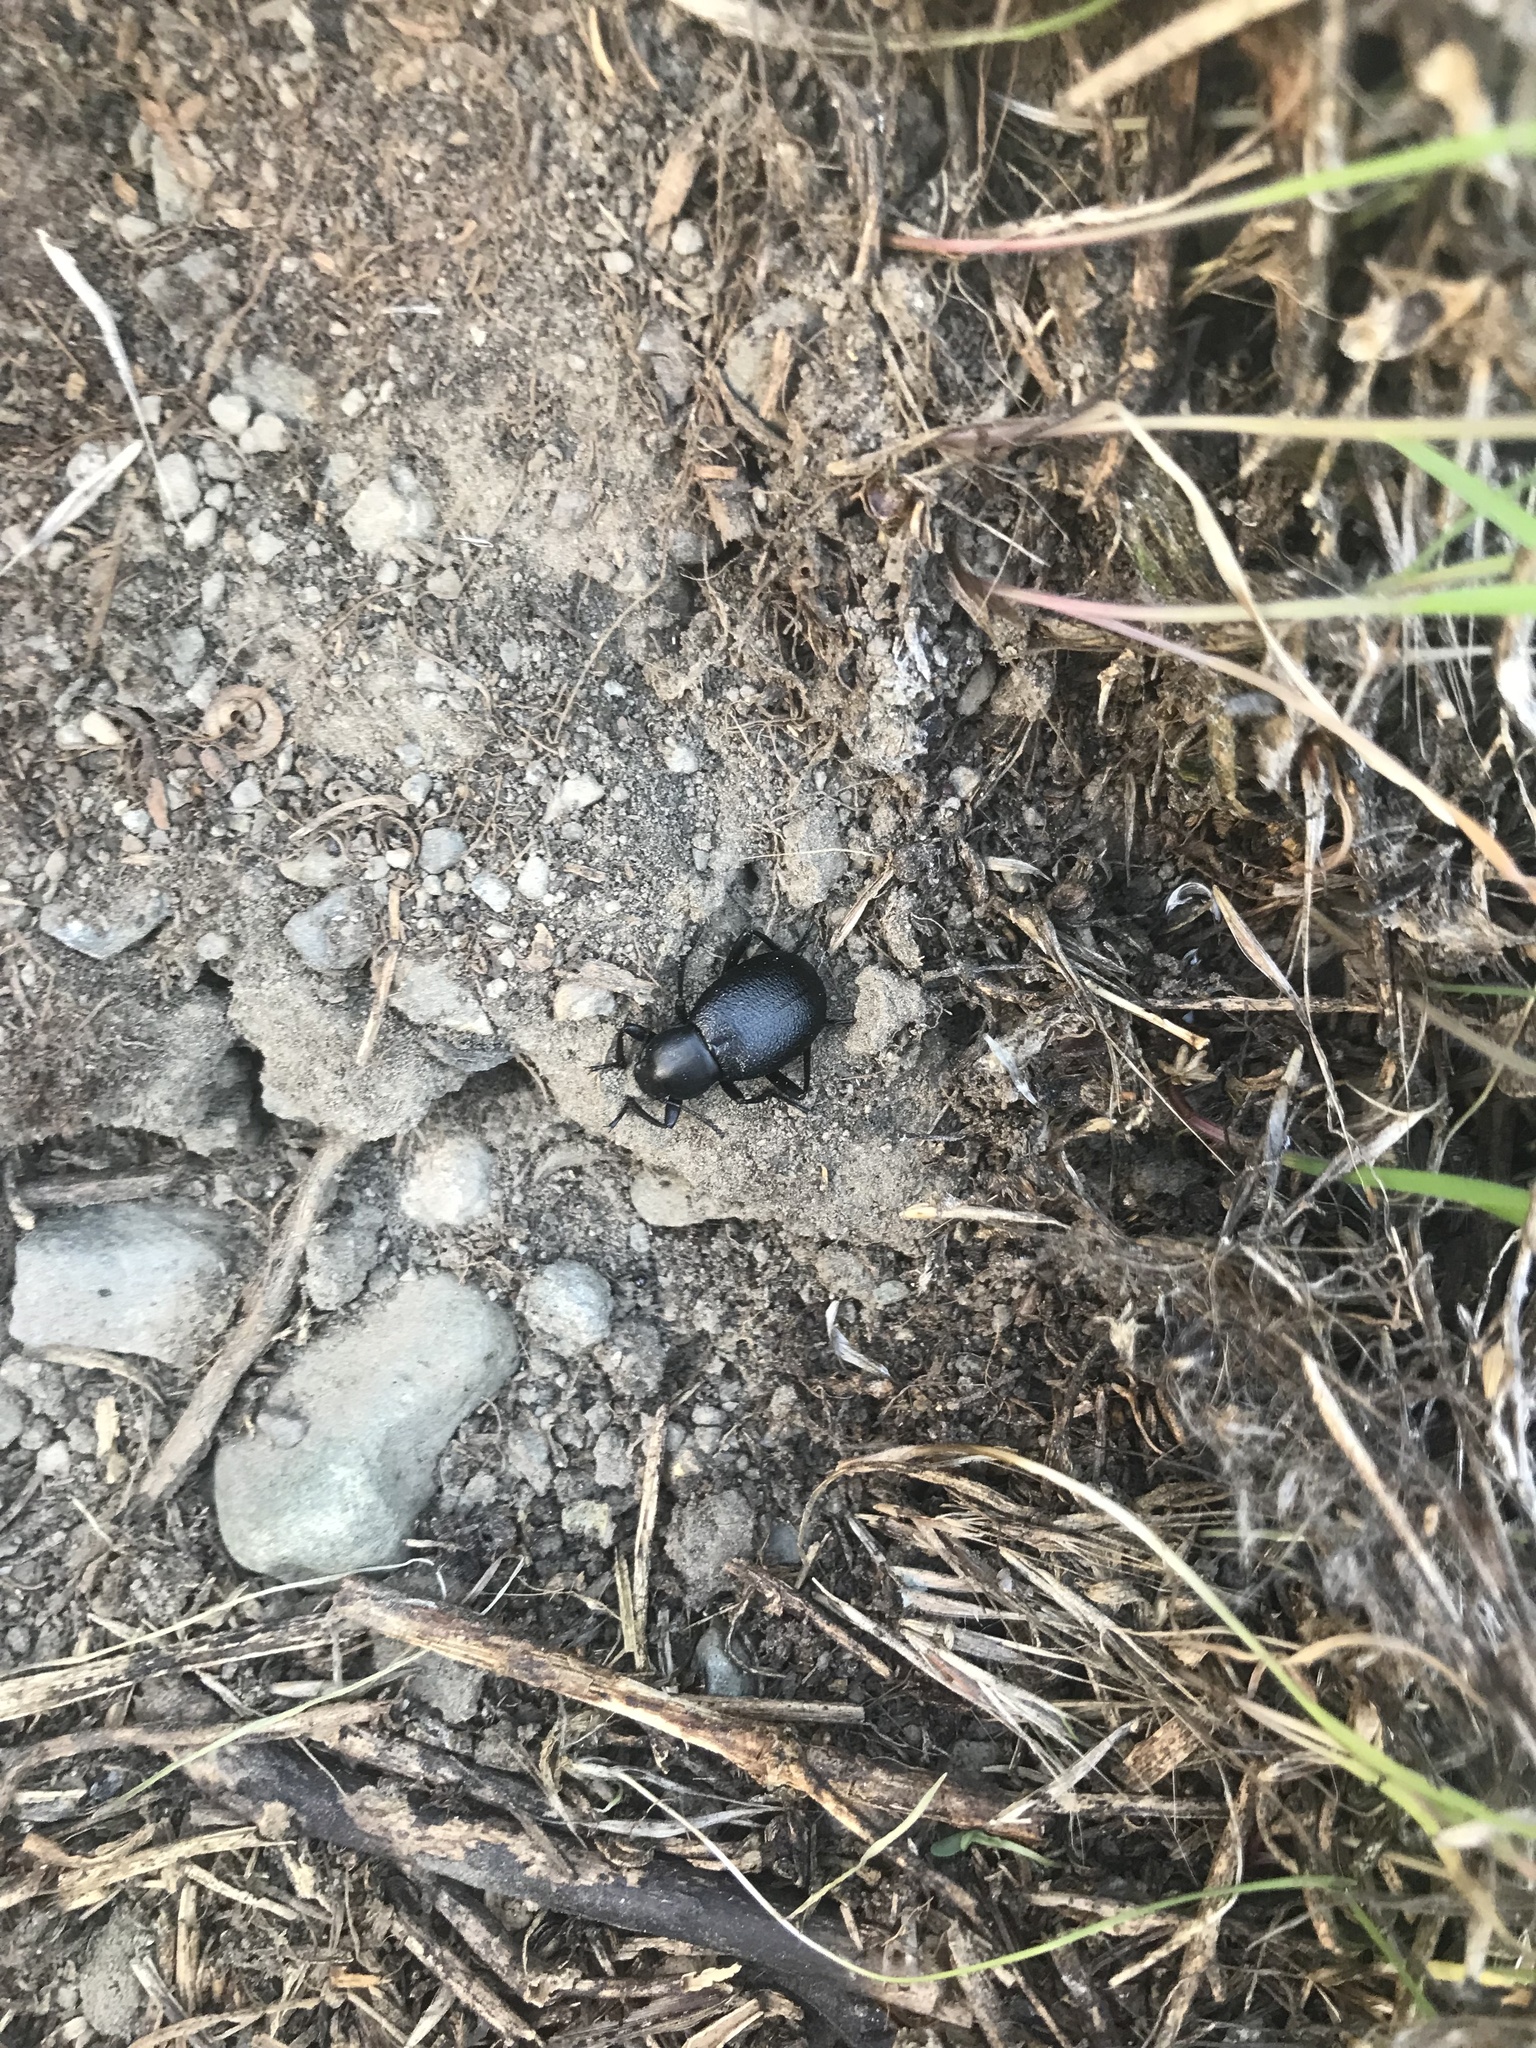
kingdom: Animalia
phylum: Arthropoda
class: Insecta
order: Coleoptera
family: Tenebrionidae
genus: Eleodes
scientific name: Eleodes granulata
